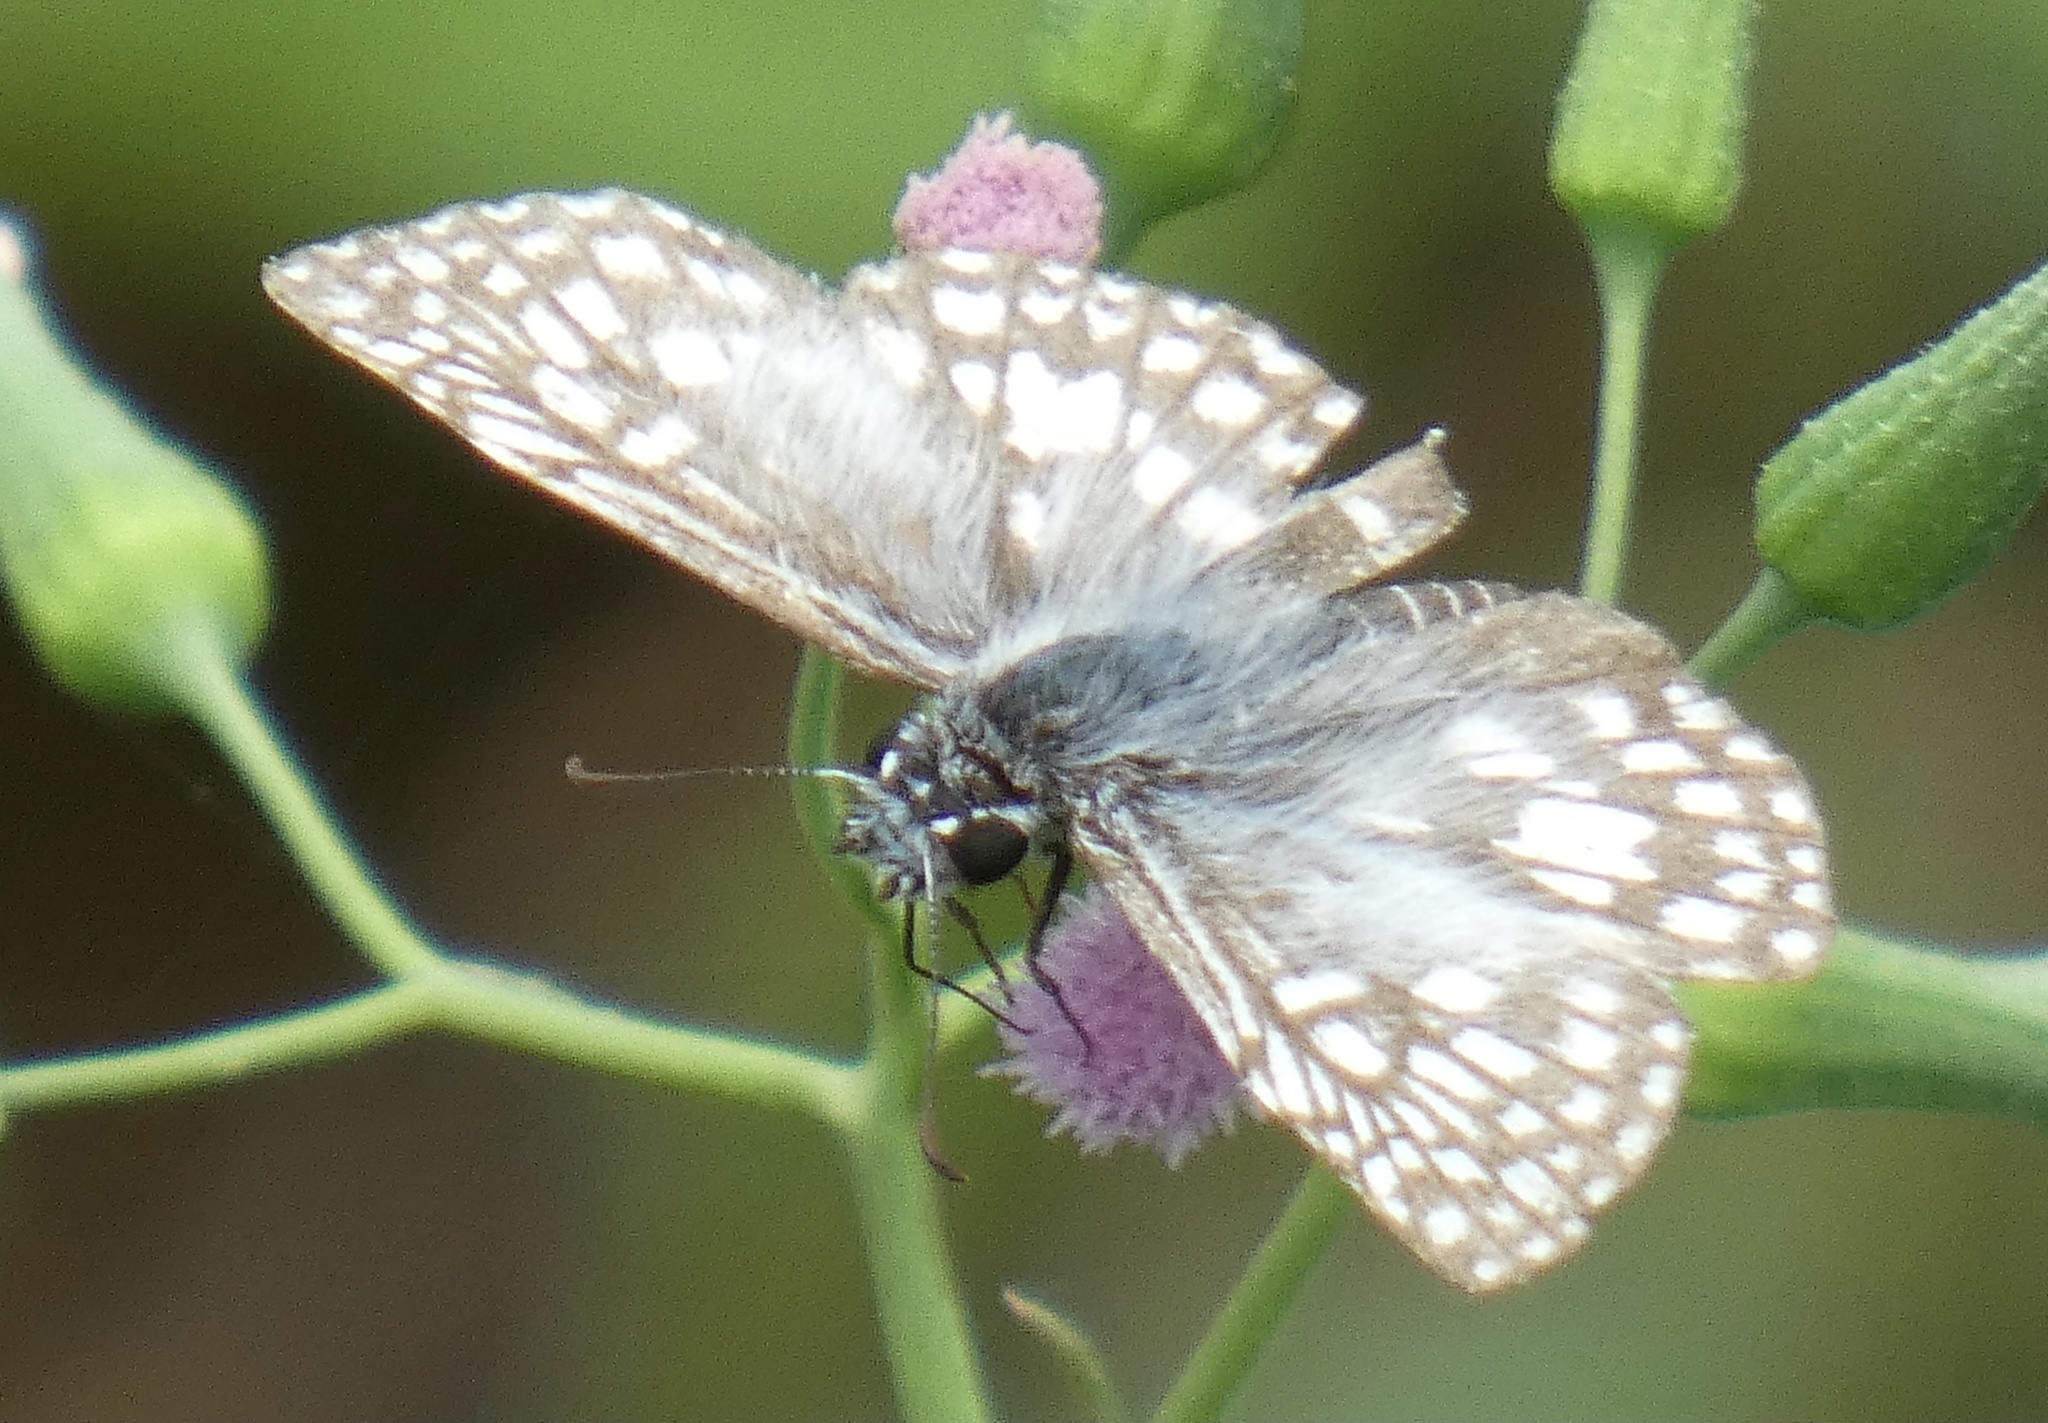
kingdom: Animalia
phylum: Arthropoda
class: Insecta
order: Lepidoptera
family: Hesperiidae
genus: Pyrgus
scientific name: Pyrgus oileus
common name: Tropical checkered-skipper
